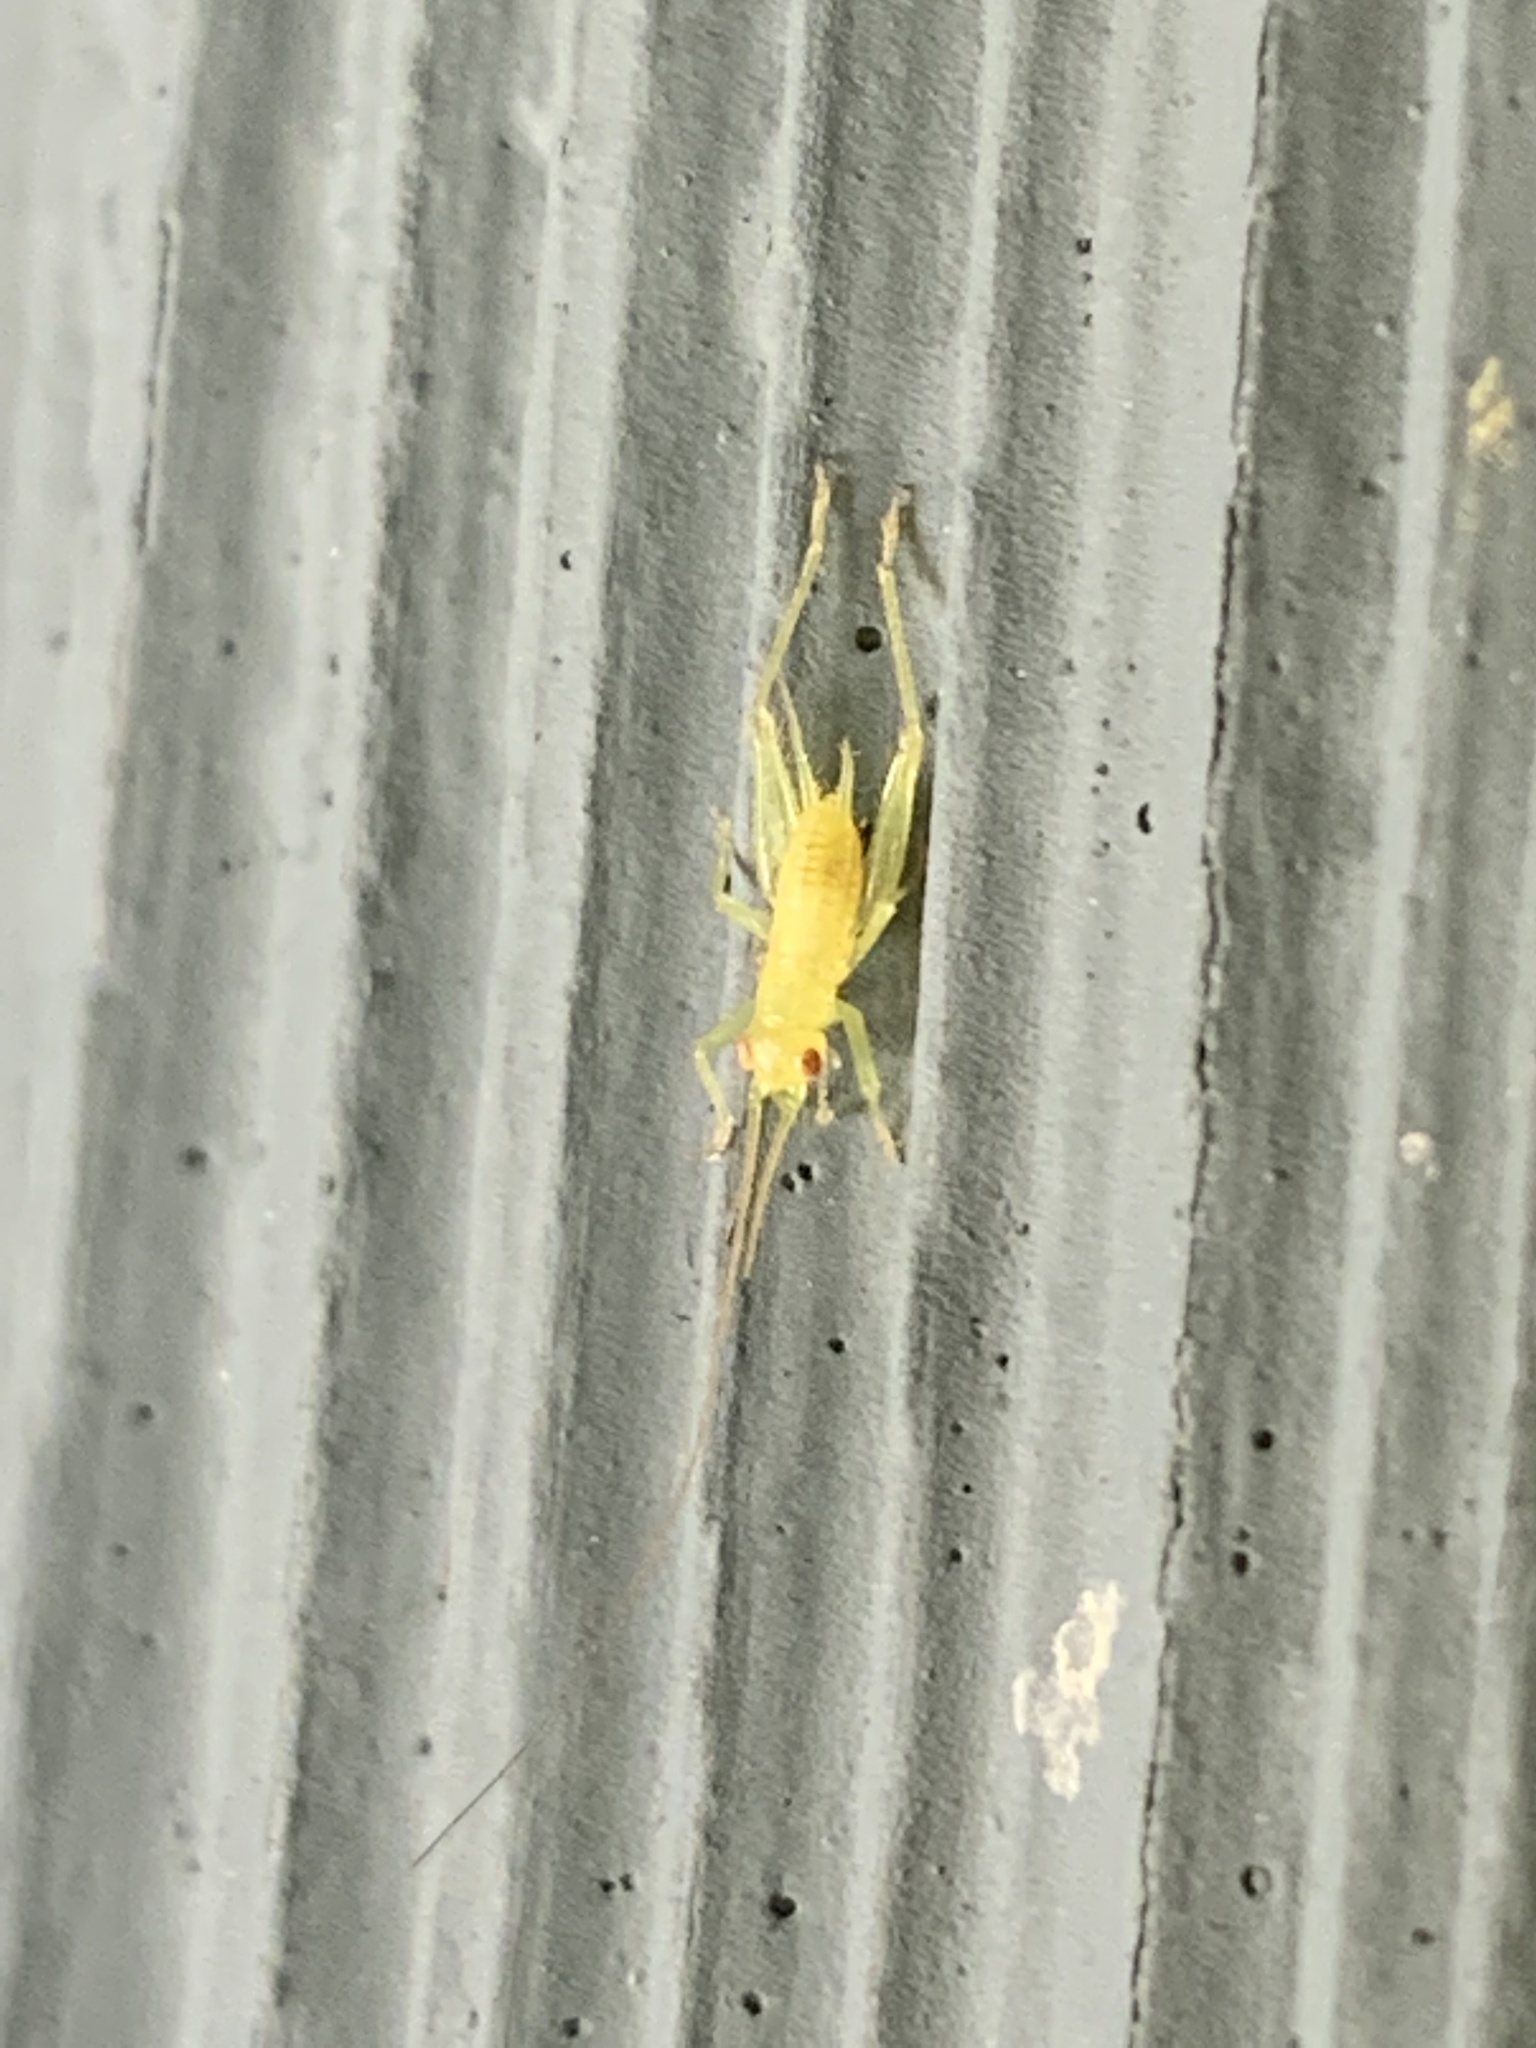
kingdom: Animalia
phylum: Arthropoda
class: Insecta
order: Orthoptera
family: Trigonidiidae
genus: Cyrtoxipha
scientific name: Cyrtoxipha columbiana
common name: Columbian trig
